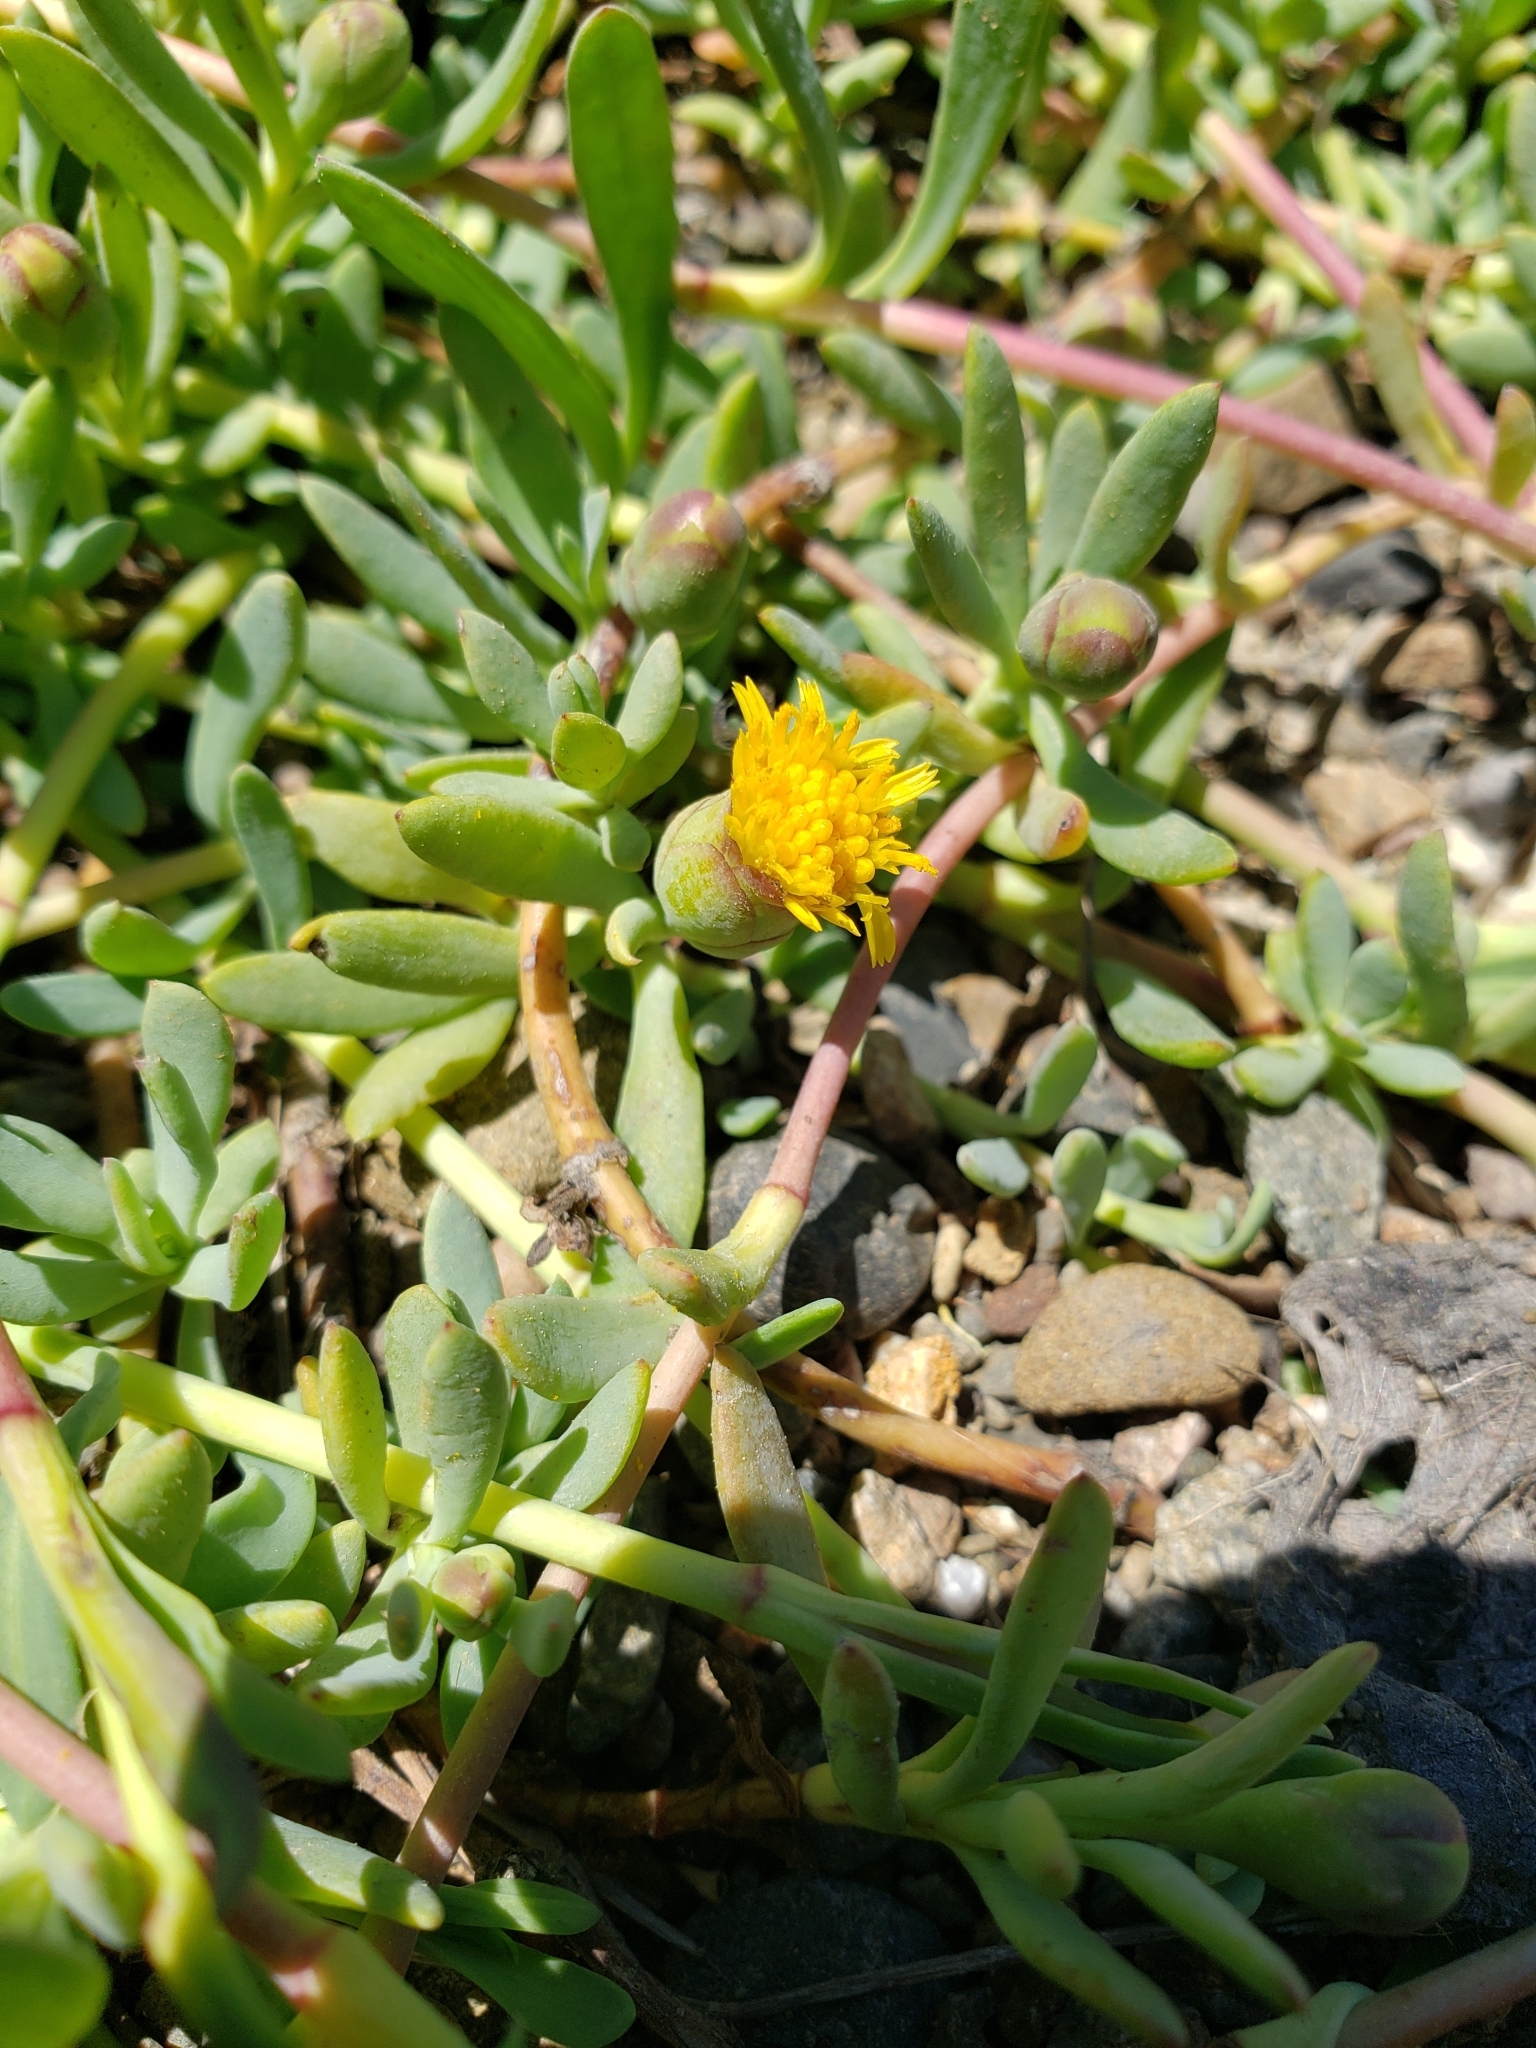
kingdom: Plantae
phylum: Tracheophyta
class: Magnoliopsida
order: Asterales
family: Asteraceae
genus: Jaumea
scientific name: Jaumea carnosa
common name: Fleshy jaumea
